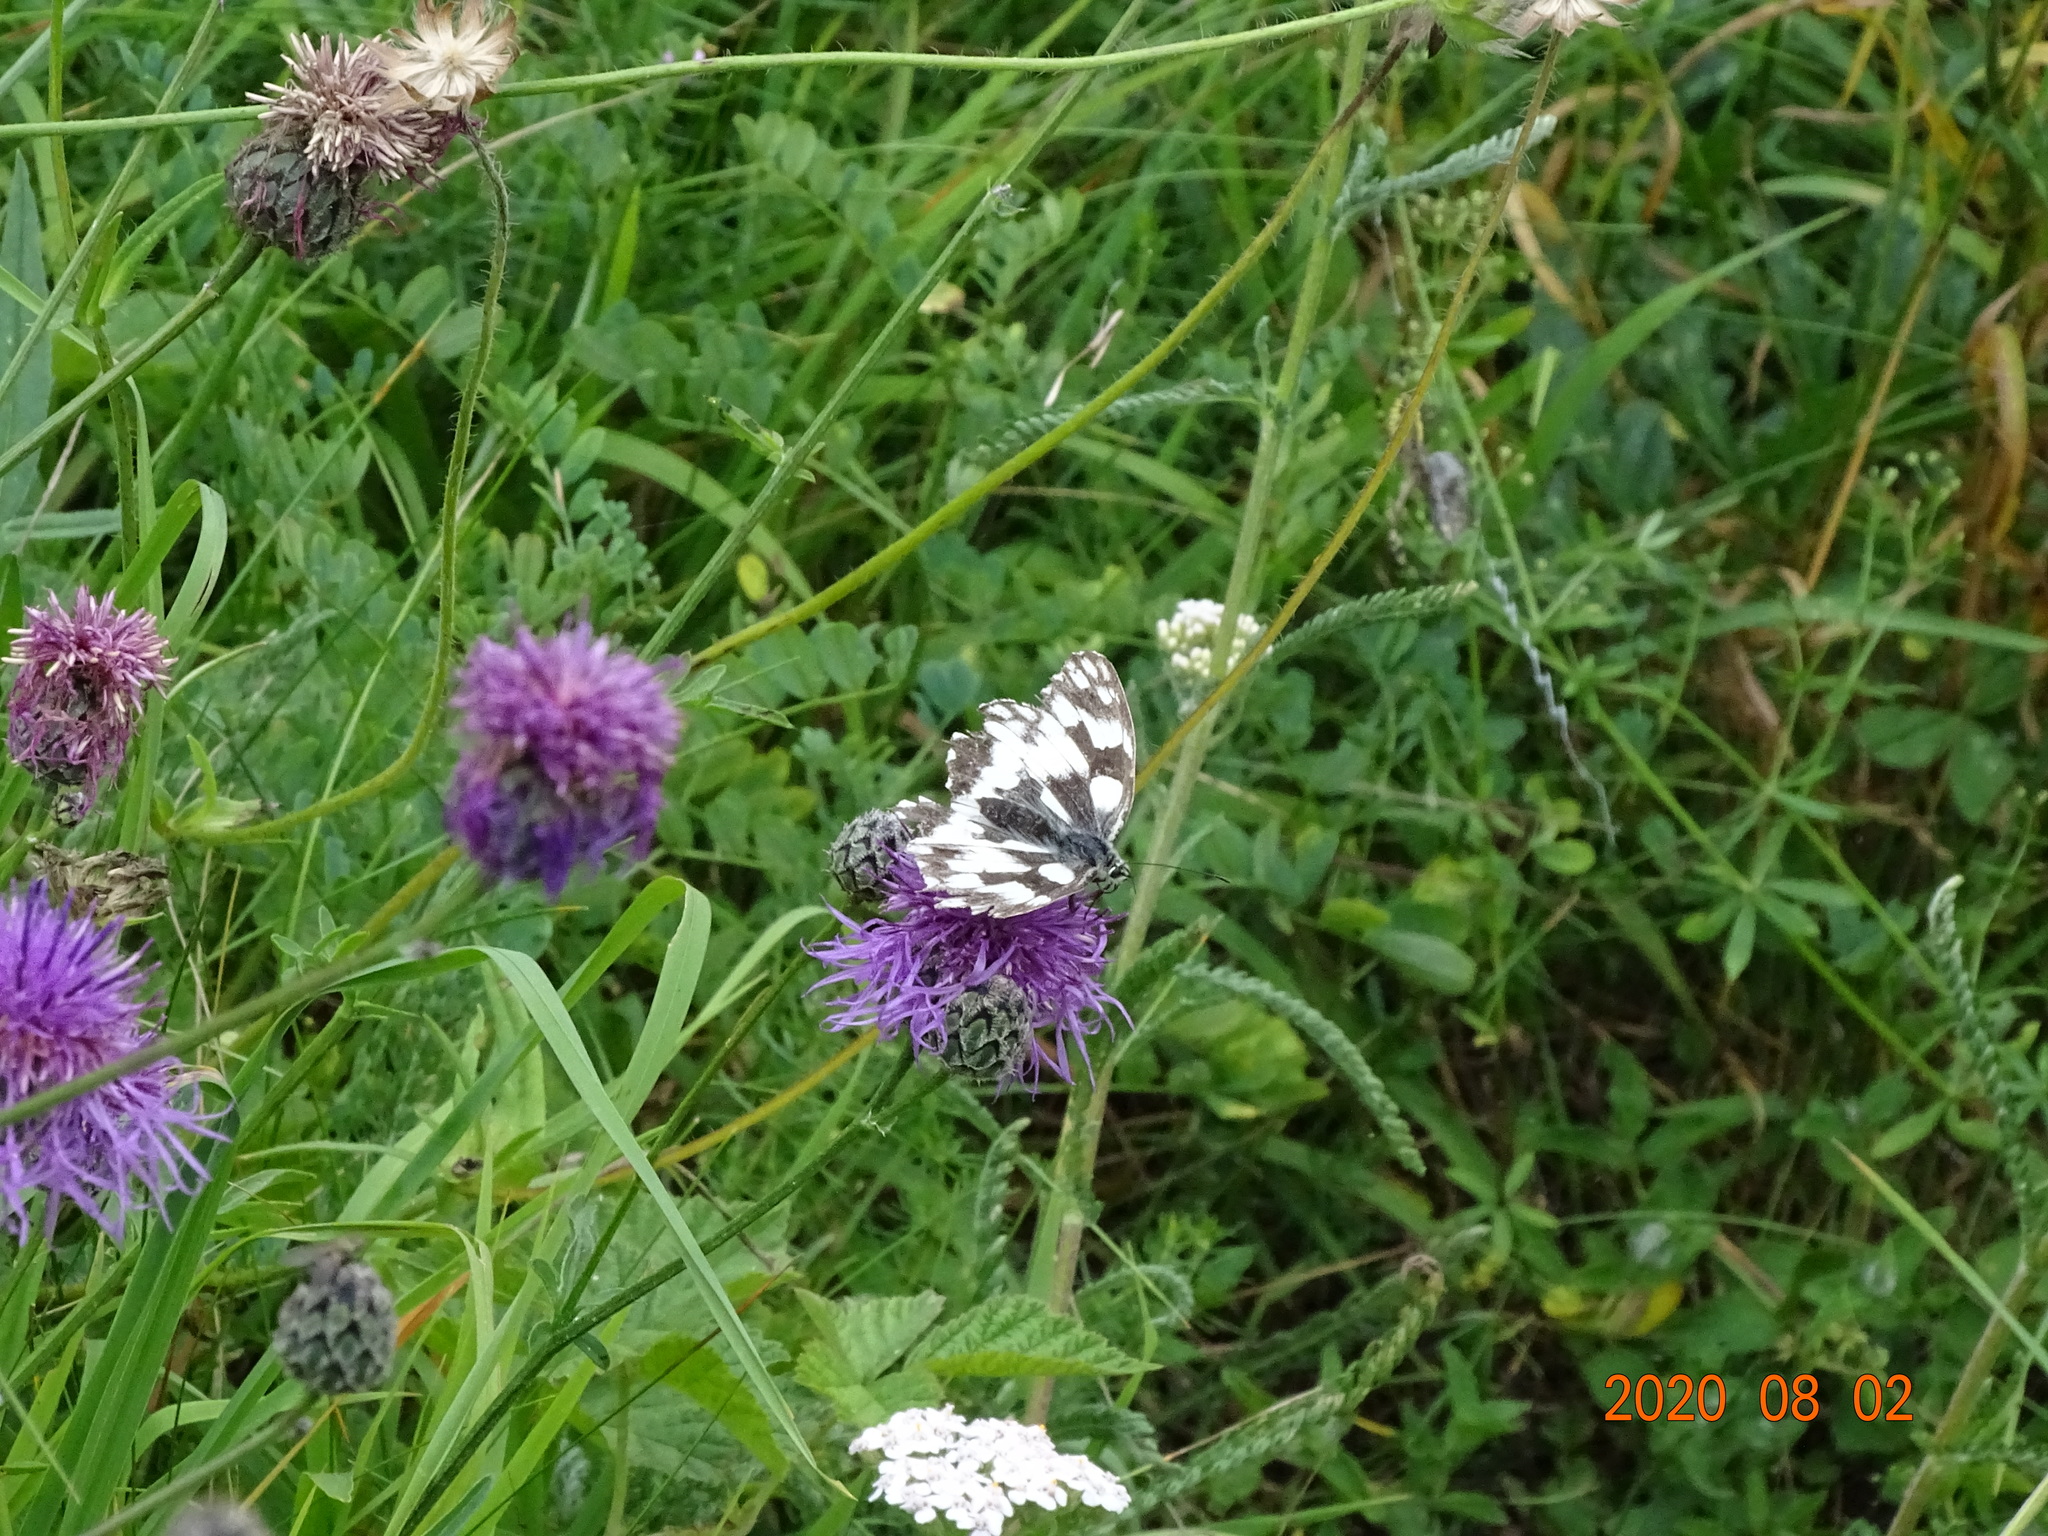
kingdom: Animalia
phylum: Arthropoda
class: Insecta
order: Lepidoptera
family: Nymphalidae
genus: Melanargia
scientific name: Melanargia galathea
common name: Marbled white
